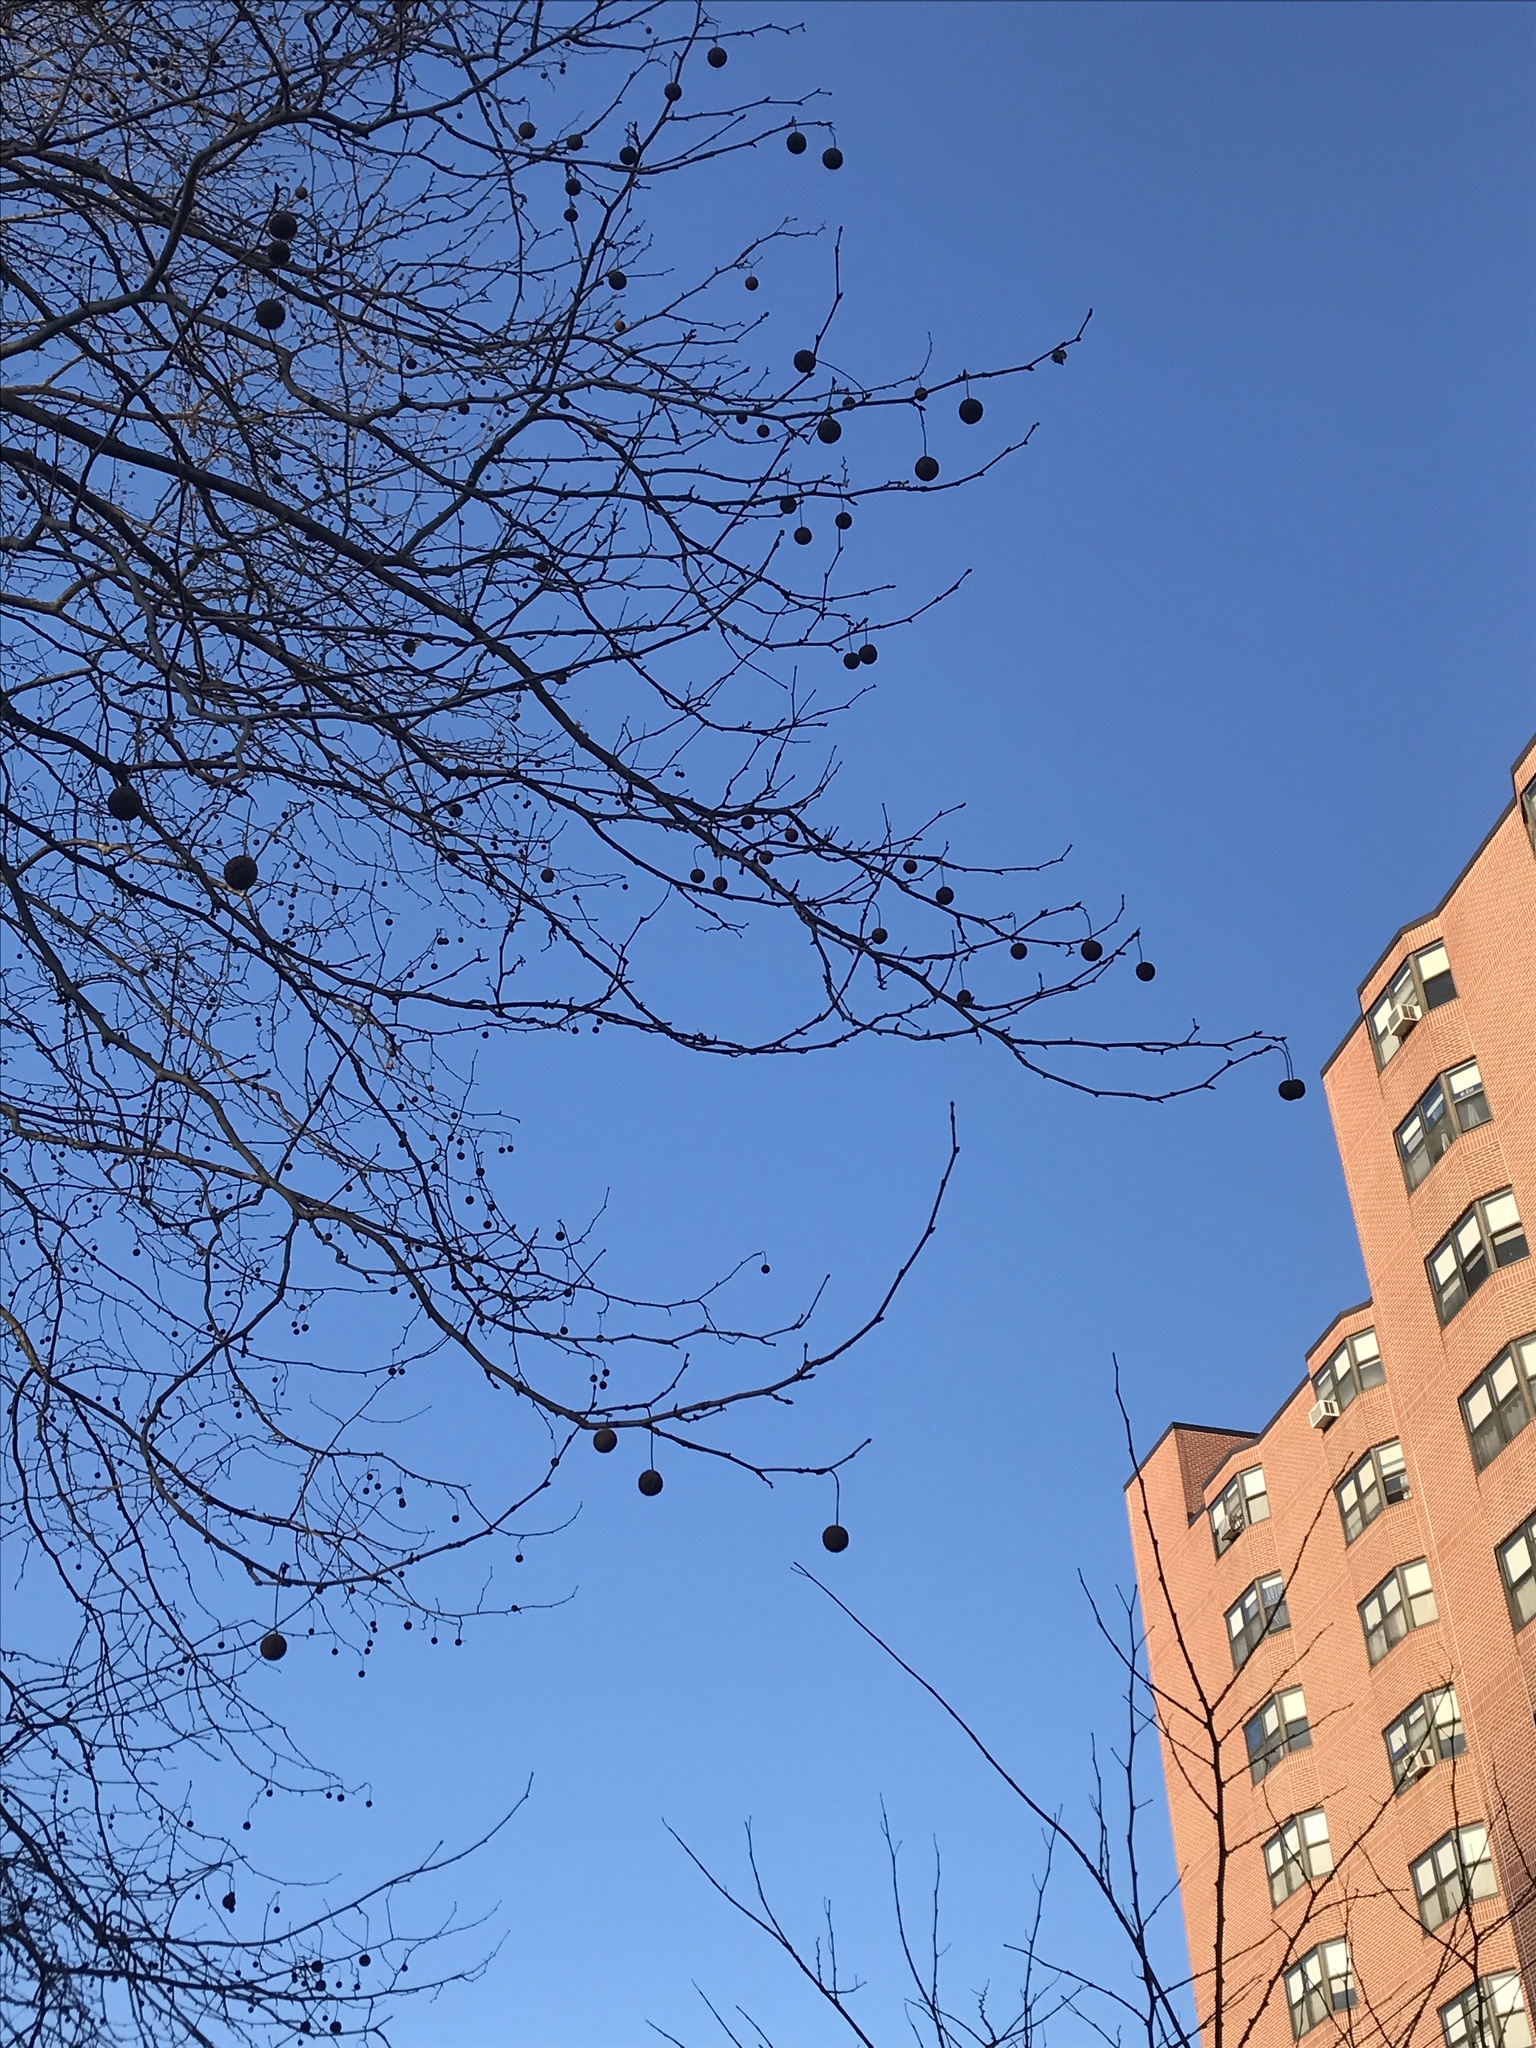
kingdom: Plantae
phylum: Tracheophyta
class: Magnoliopsida
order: Proteales
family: Platanaceae
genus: Platanus
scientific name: Platanus occidentalis
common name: American sycamore
